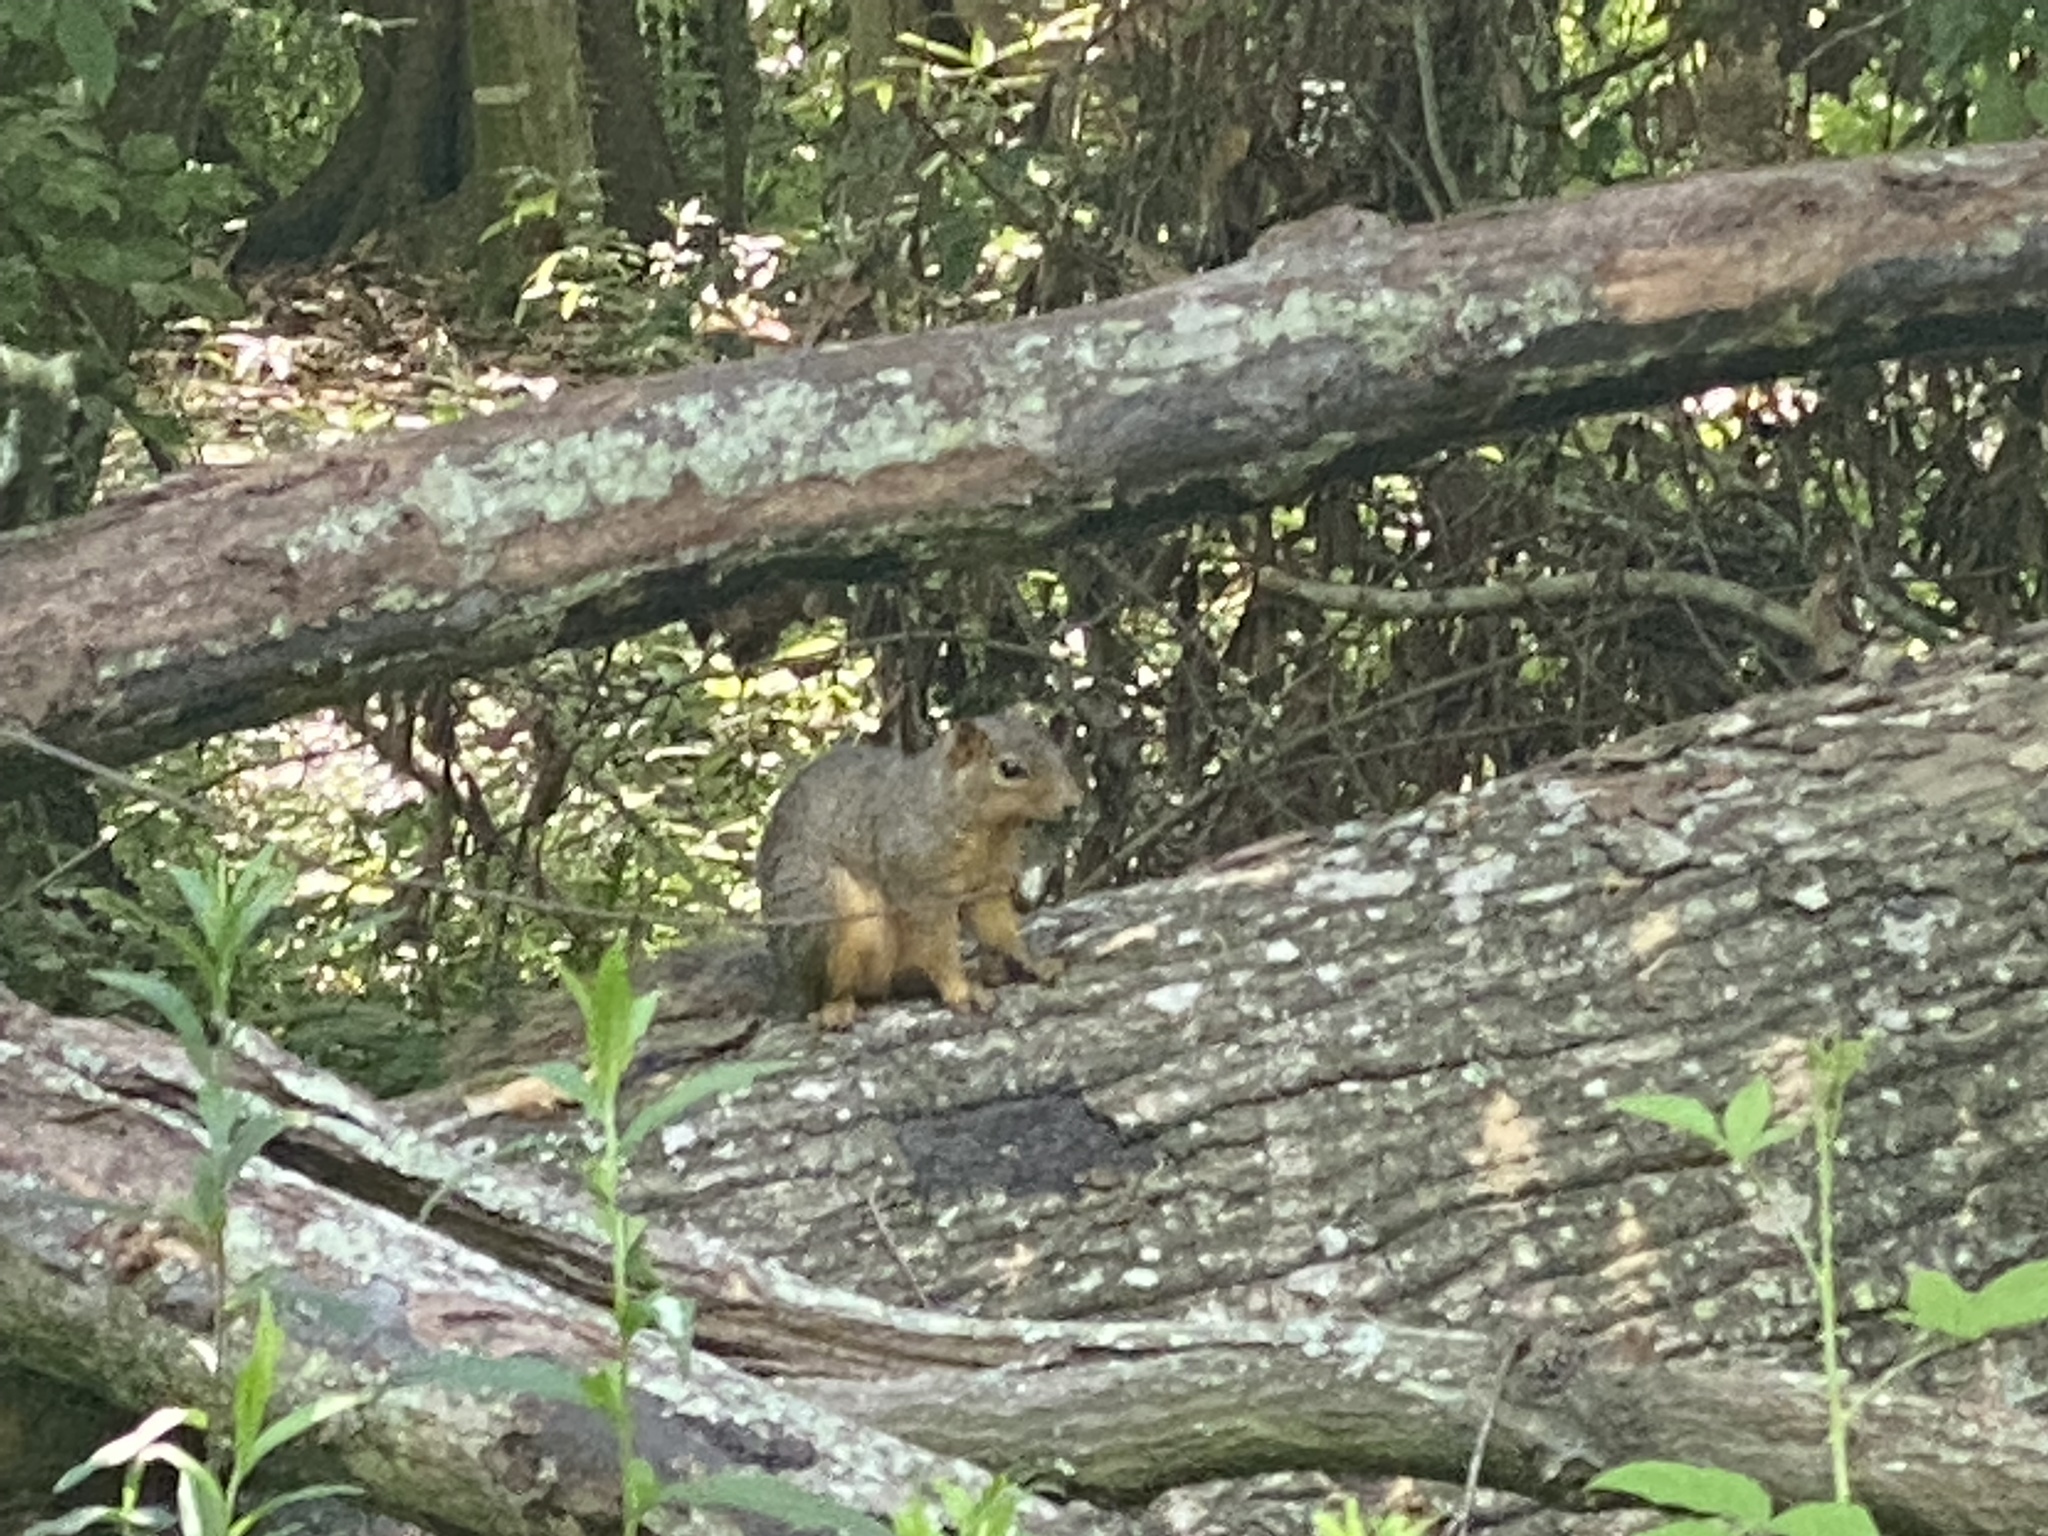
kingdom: Animalia
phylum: Chordata
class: Mammalia
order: Rodentia
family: Sciuridae
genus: Sciurus
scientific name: Sciurus niger
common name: Fox squirrel
